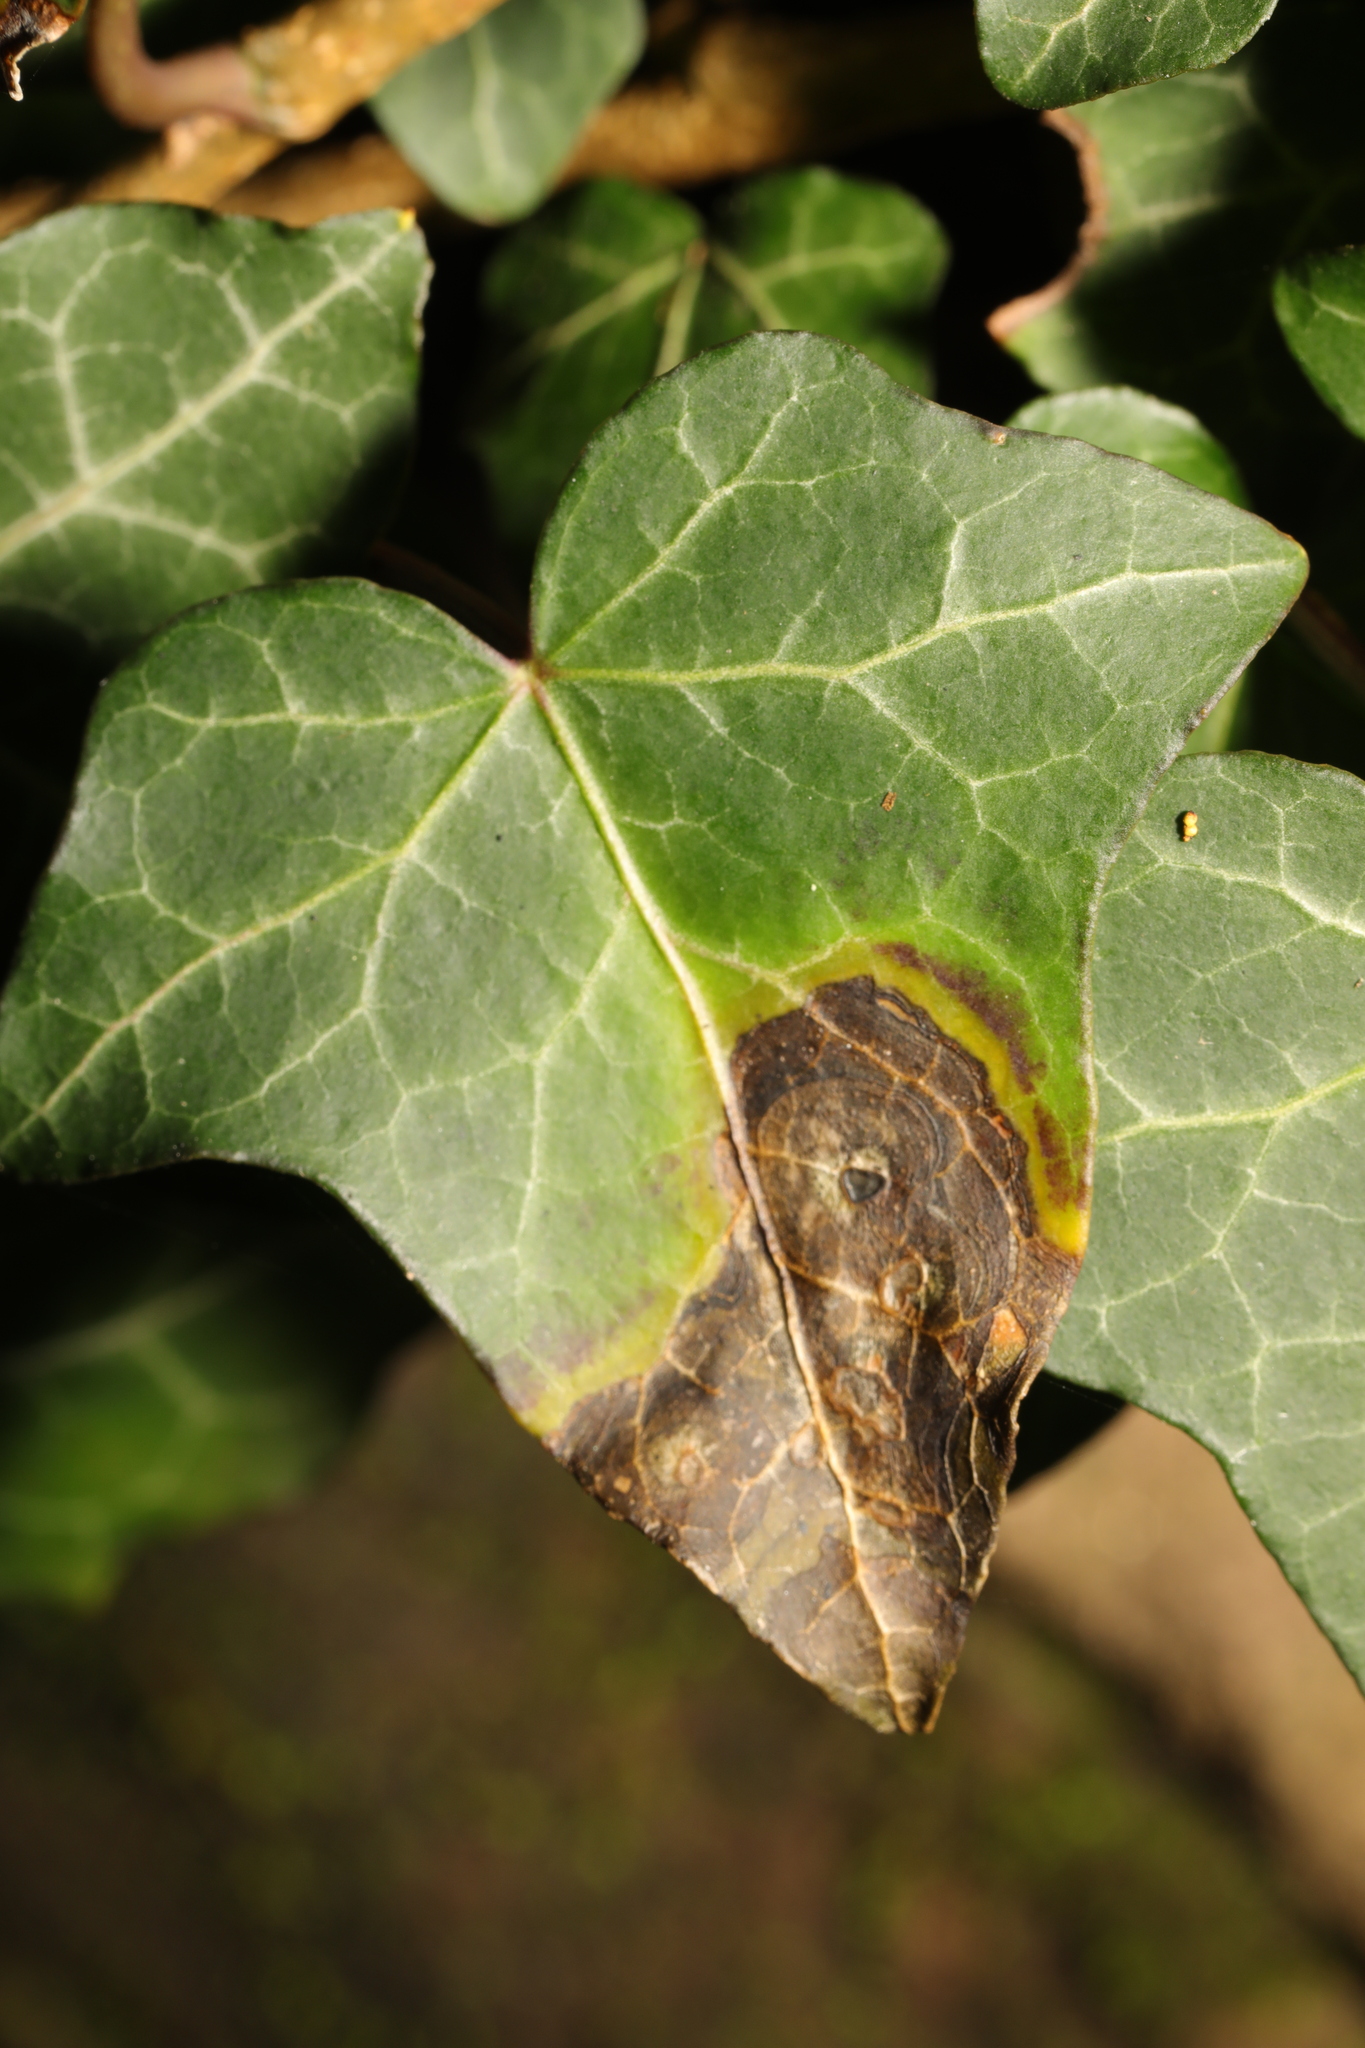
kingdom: Fungi
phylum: Ascomycota
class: Dothideomycetes
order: Pleosporales
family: Didymellaceae
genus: Boeremia
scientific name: Boeremia hedericola
